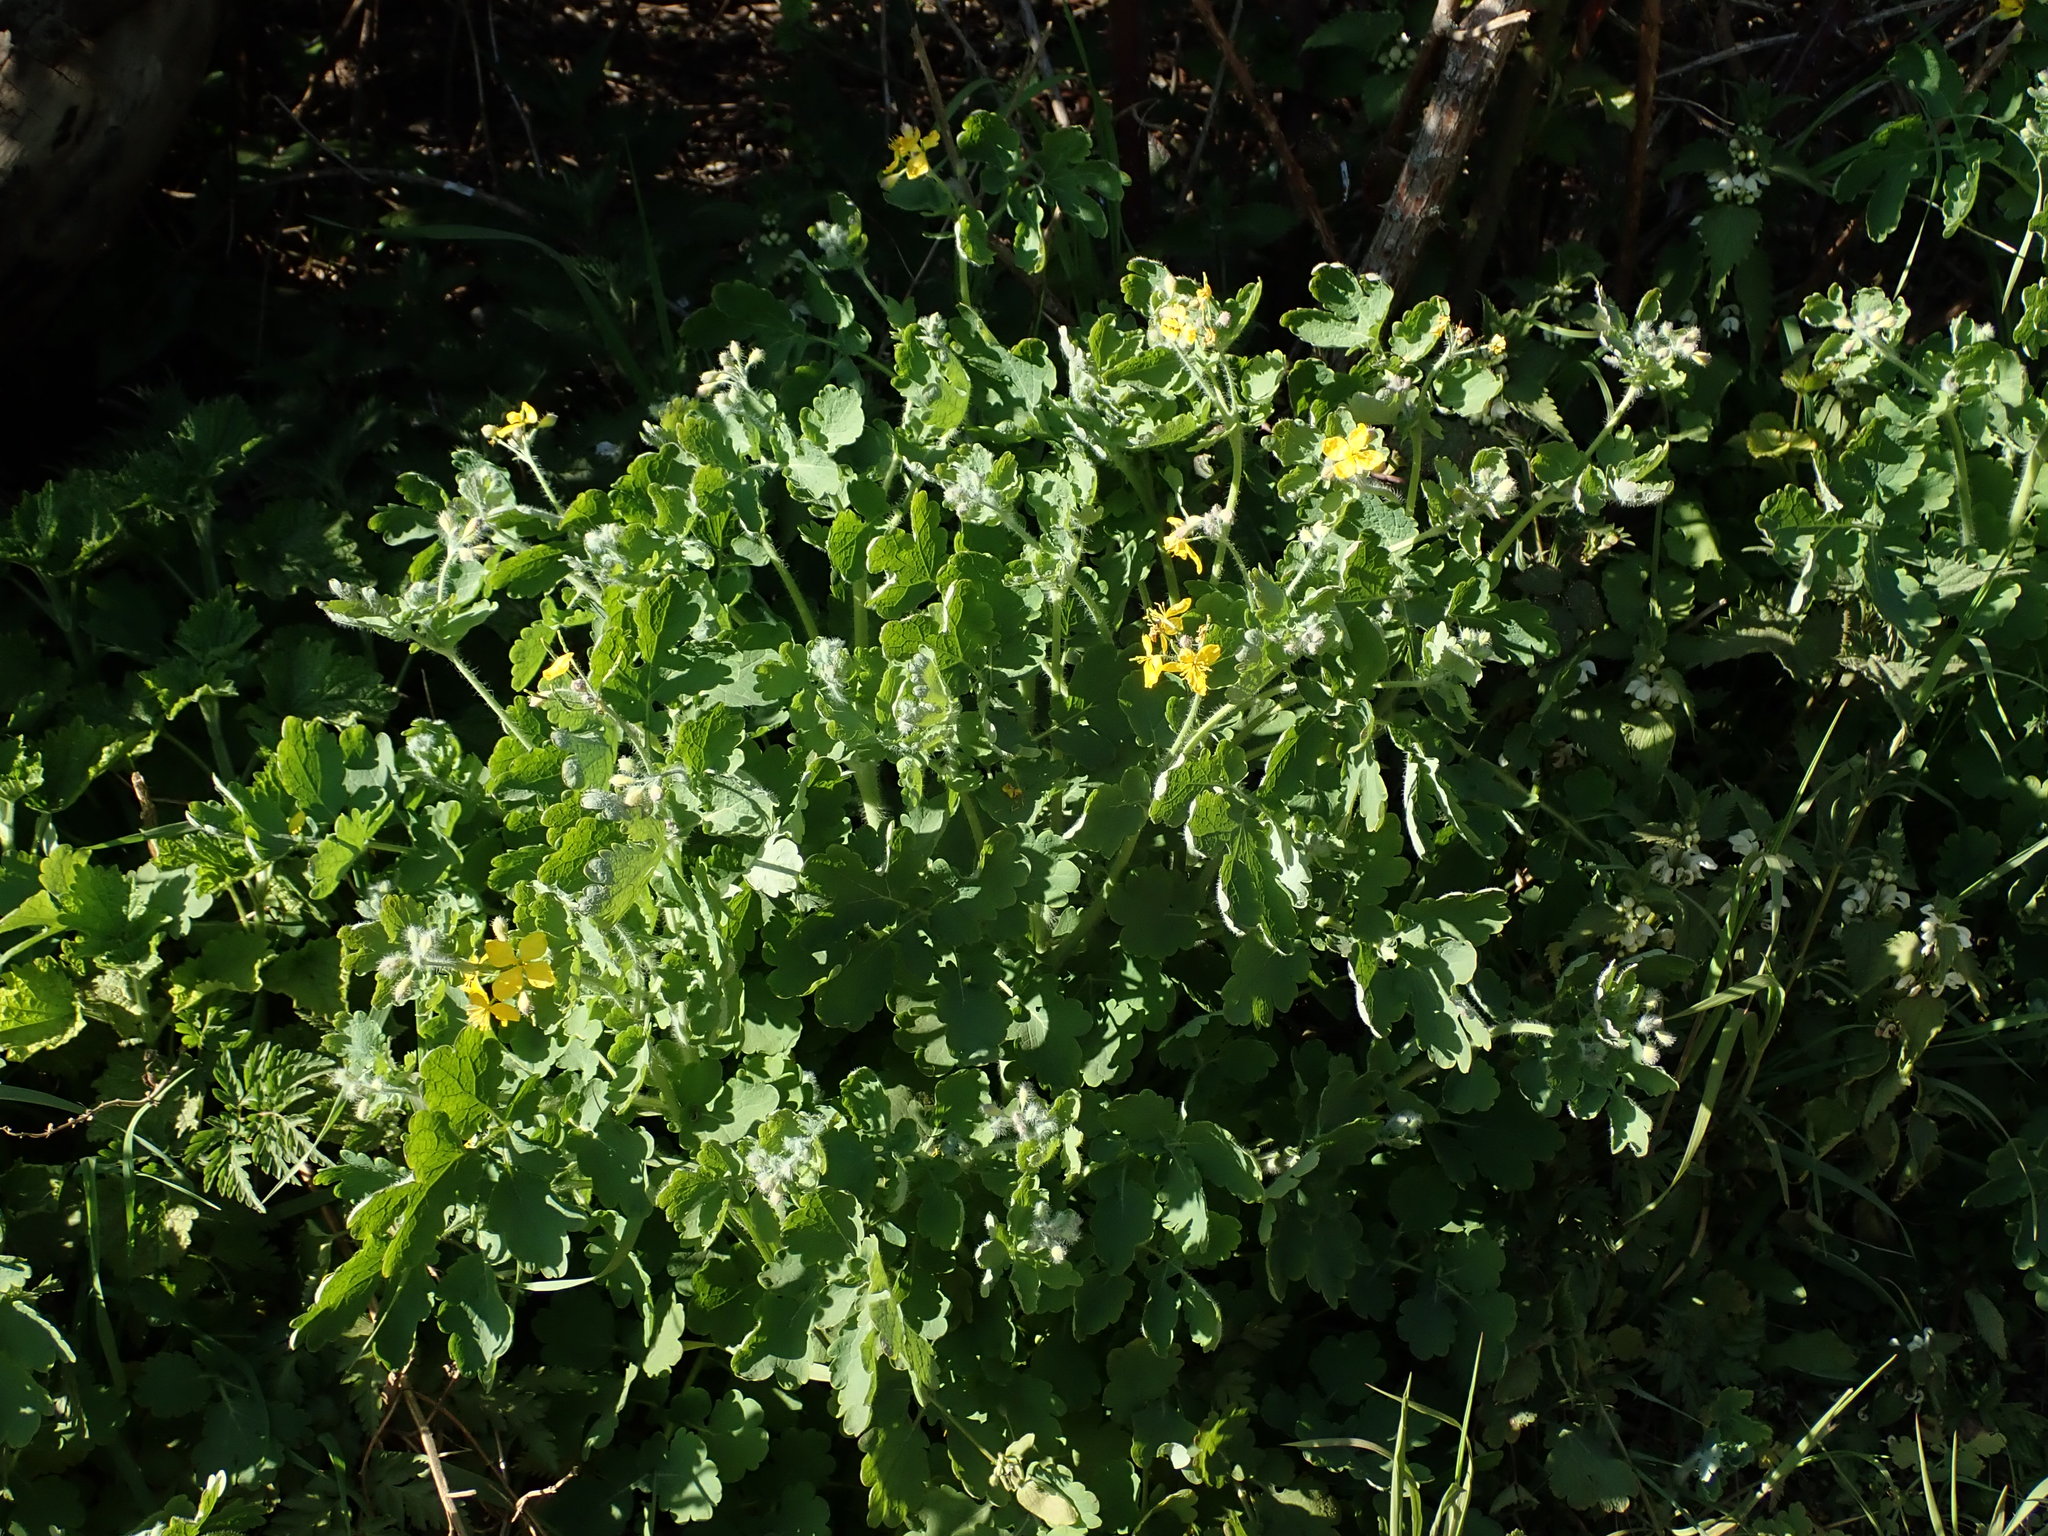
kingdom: Plantae
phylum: Tracheophyta
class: Magnoliopsida
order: Ranunculales
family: Papaveraceae
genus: Chelidonium
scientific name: Chelidonium majus
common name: Greater celandine
